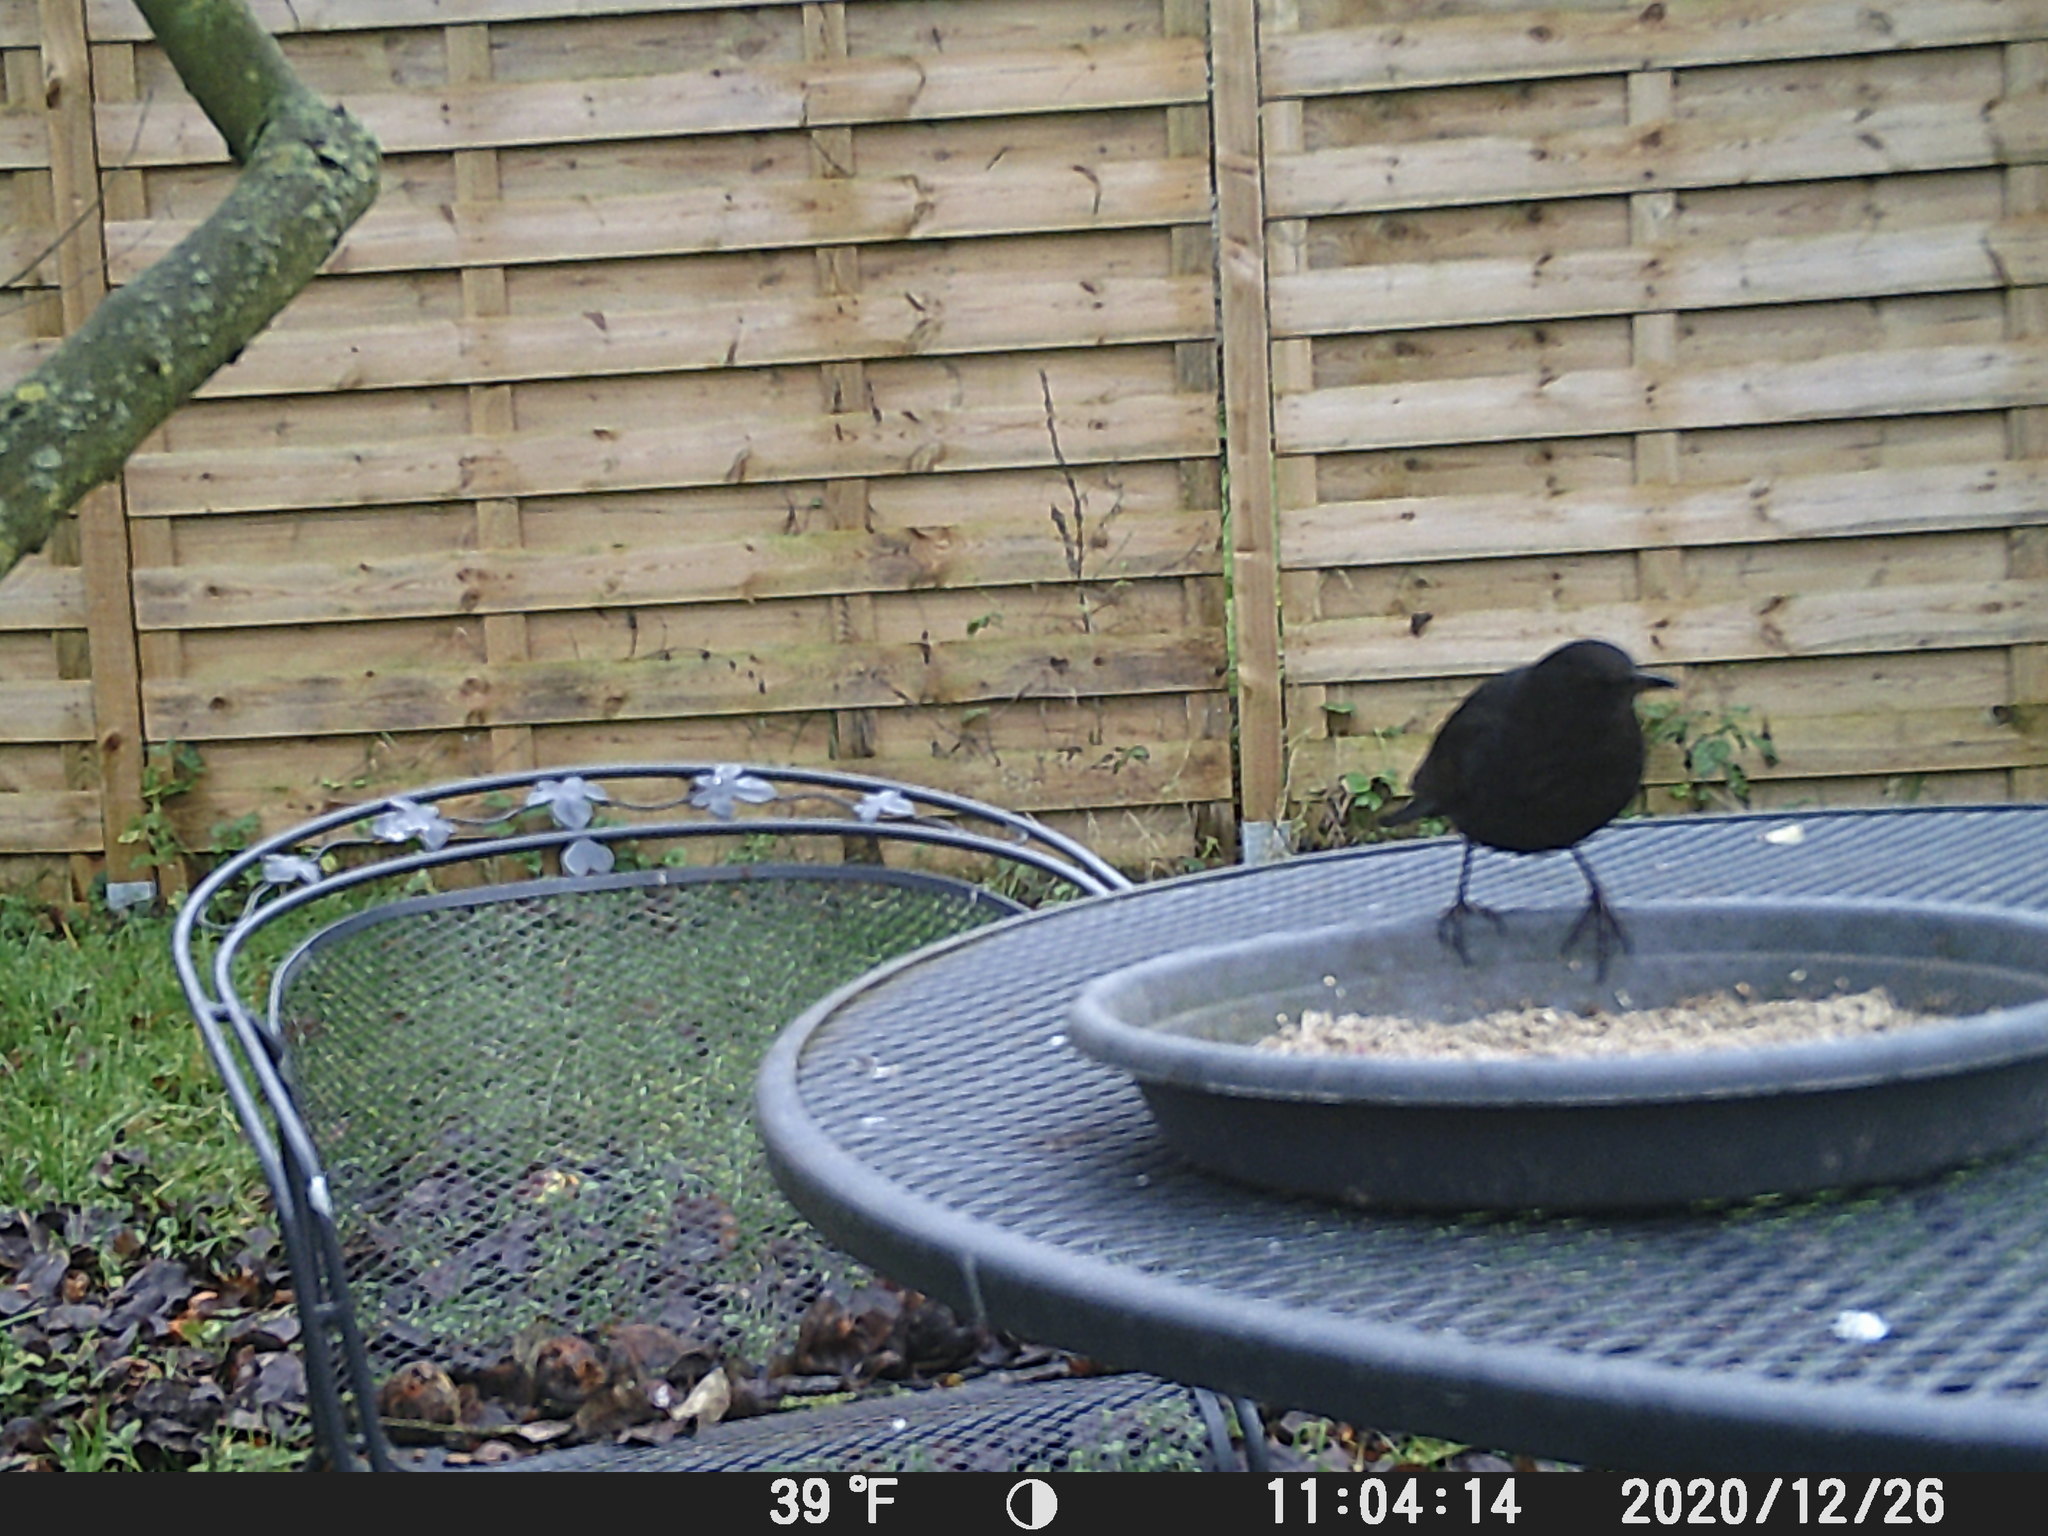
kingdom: Animalia
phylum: Chordata
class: Aves
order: Passeriformes
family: Turdidae
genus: Turdus
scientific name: Turdus merula
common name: Common blackbird
